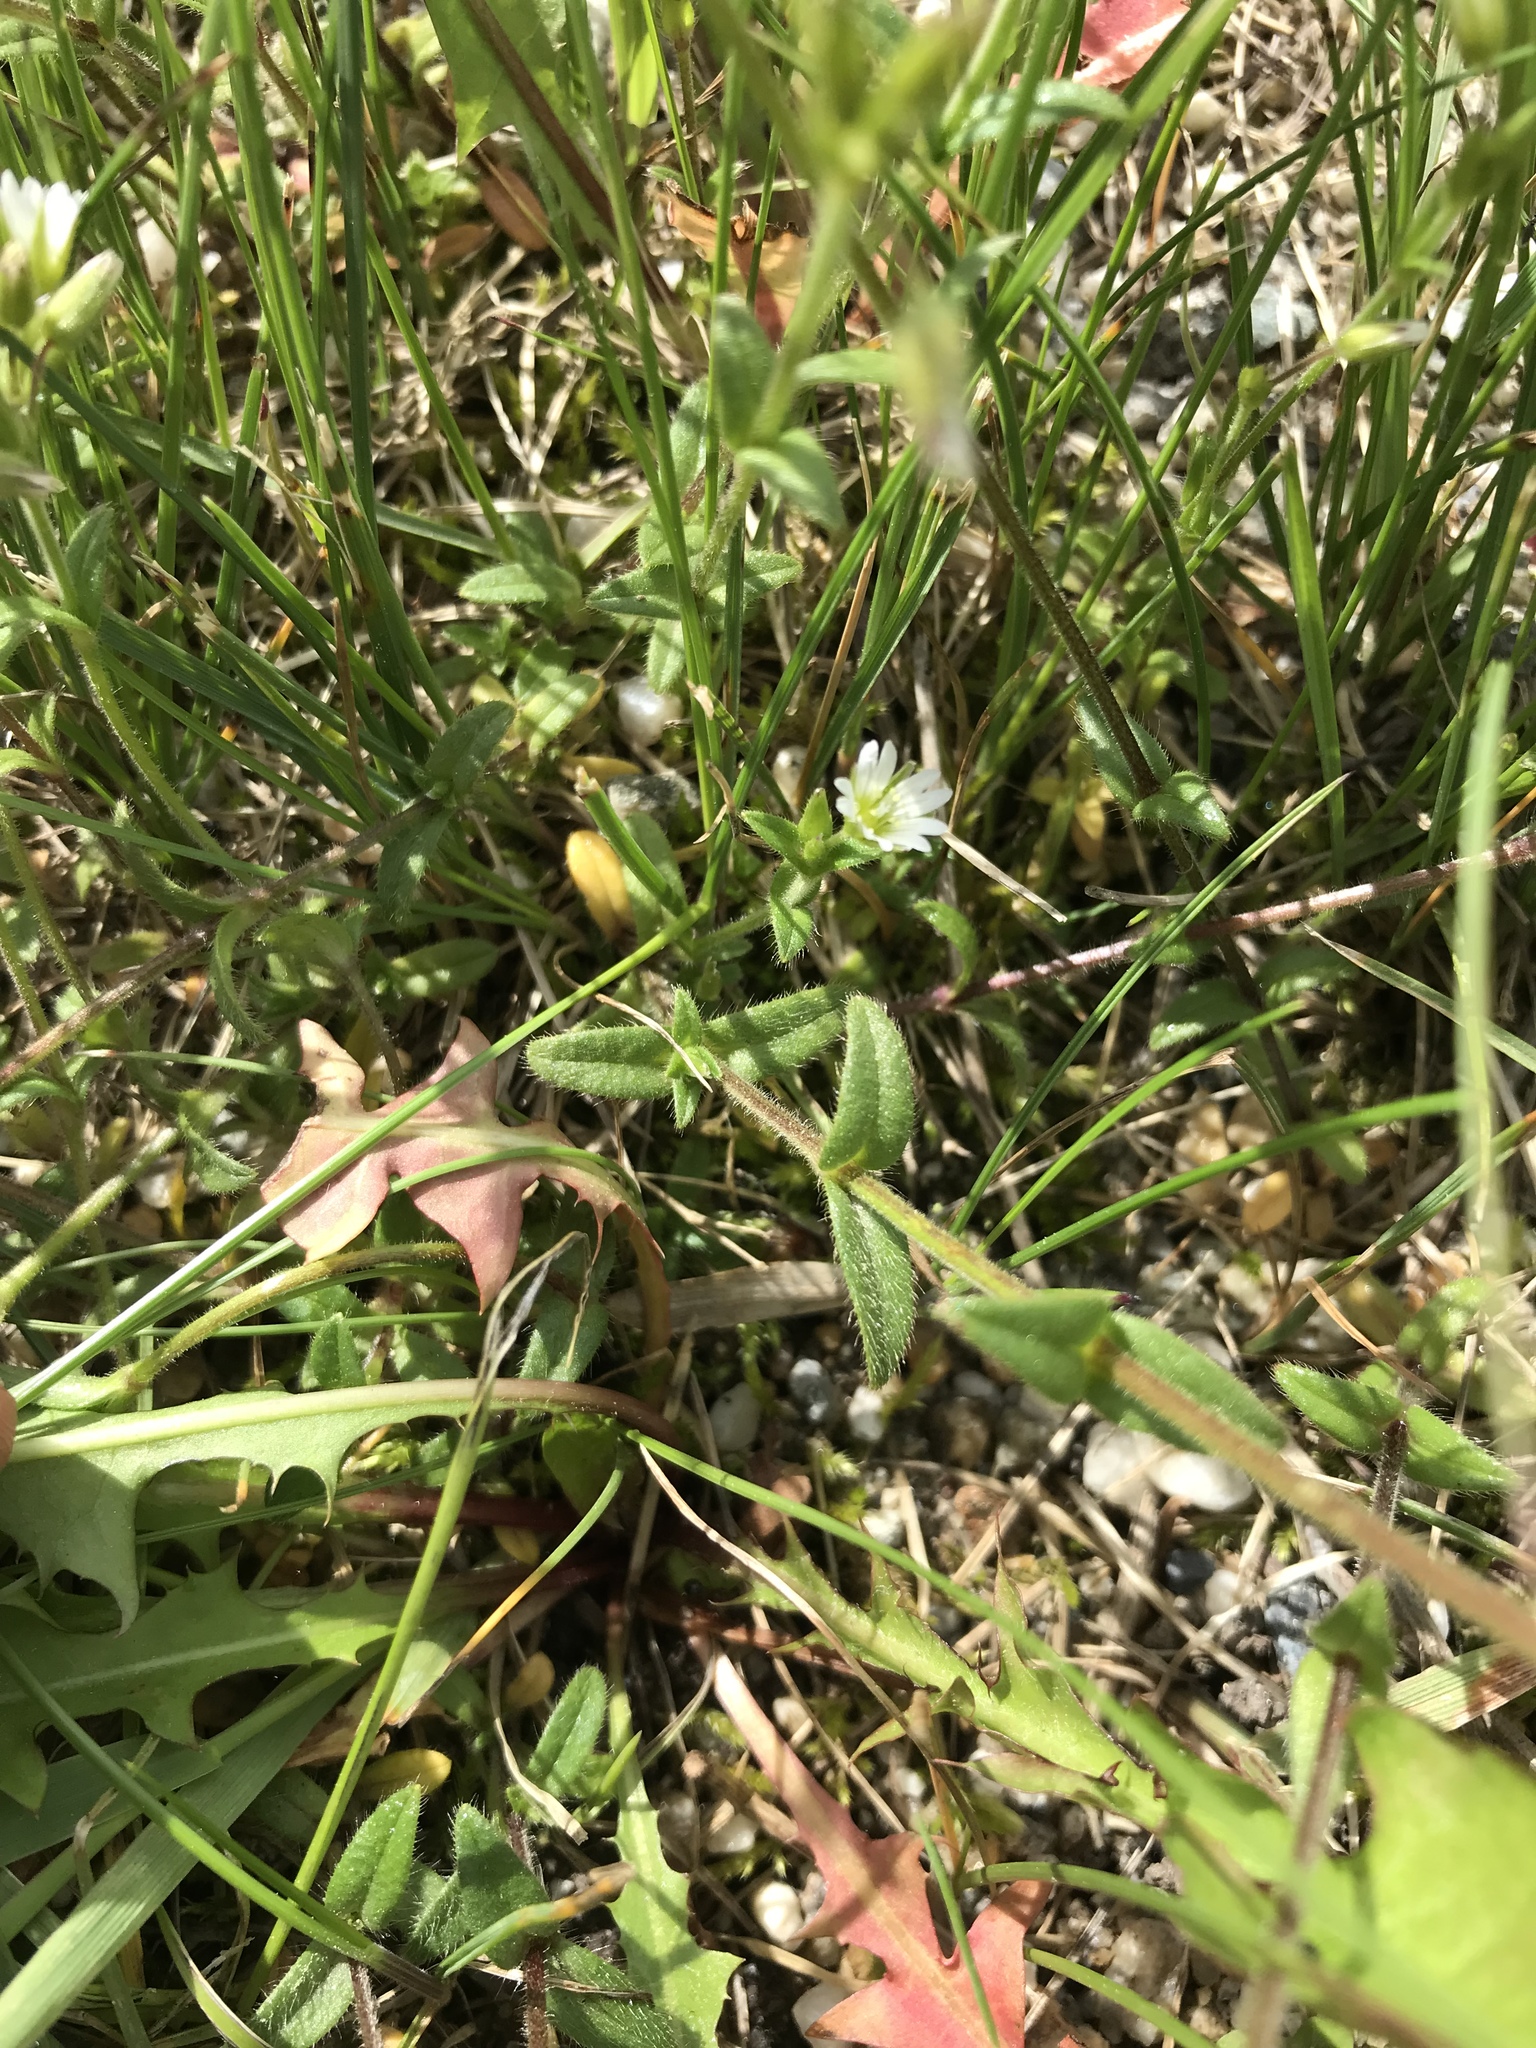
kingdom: Plantae
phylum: Tracheophyta
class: Magnoliopsida
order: Caryophyllales
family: Caryophyllaceae
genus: Cerastium
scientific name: Cerastium fontanum
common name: Common mouse-ear
